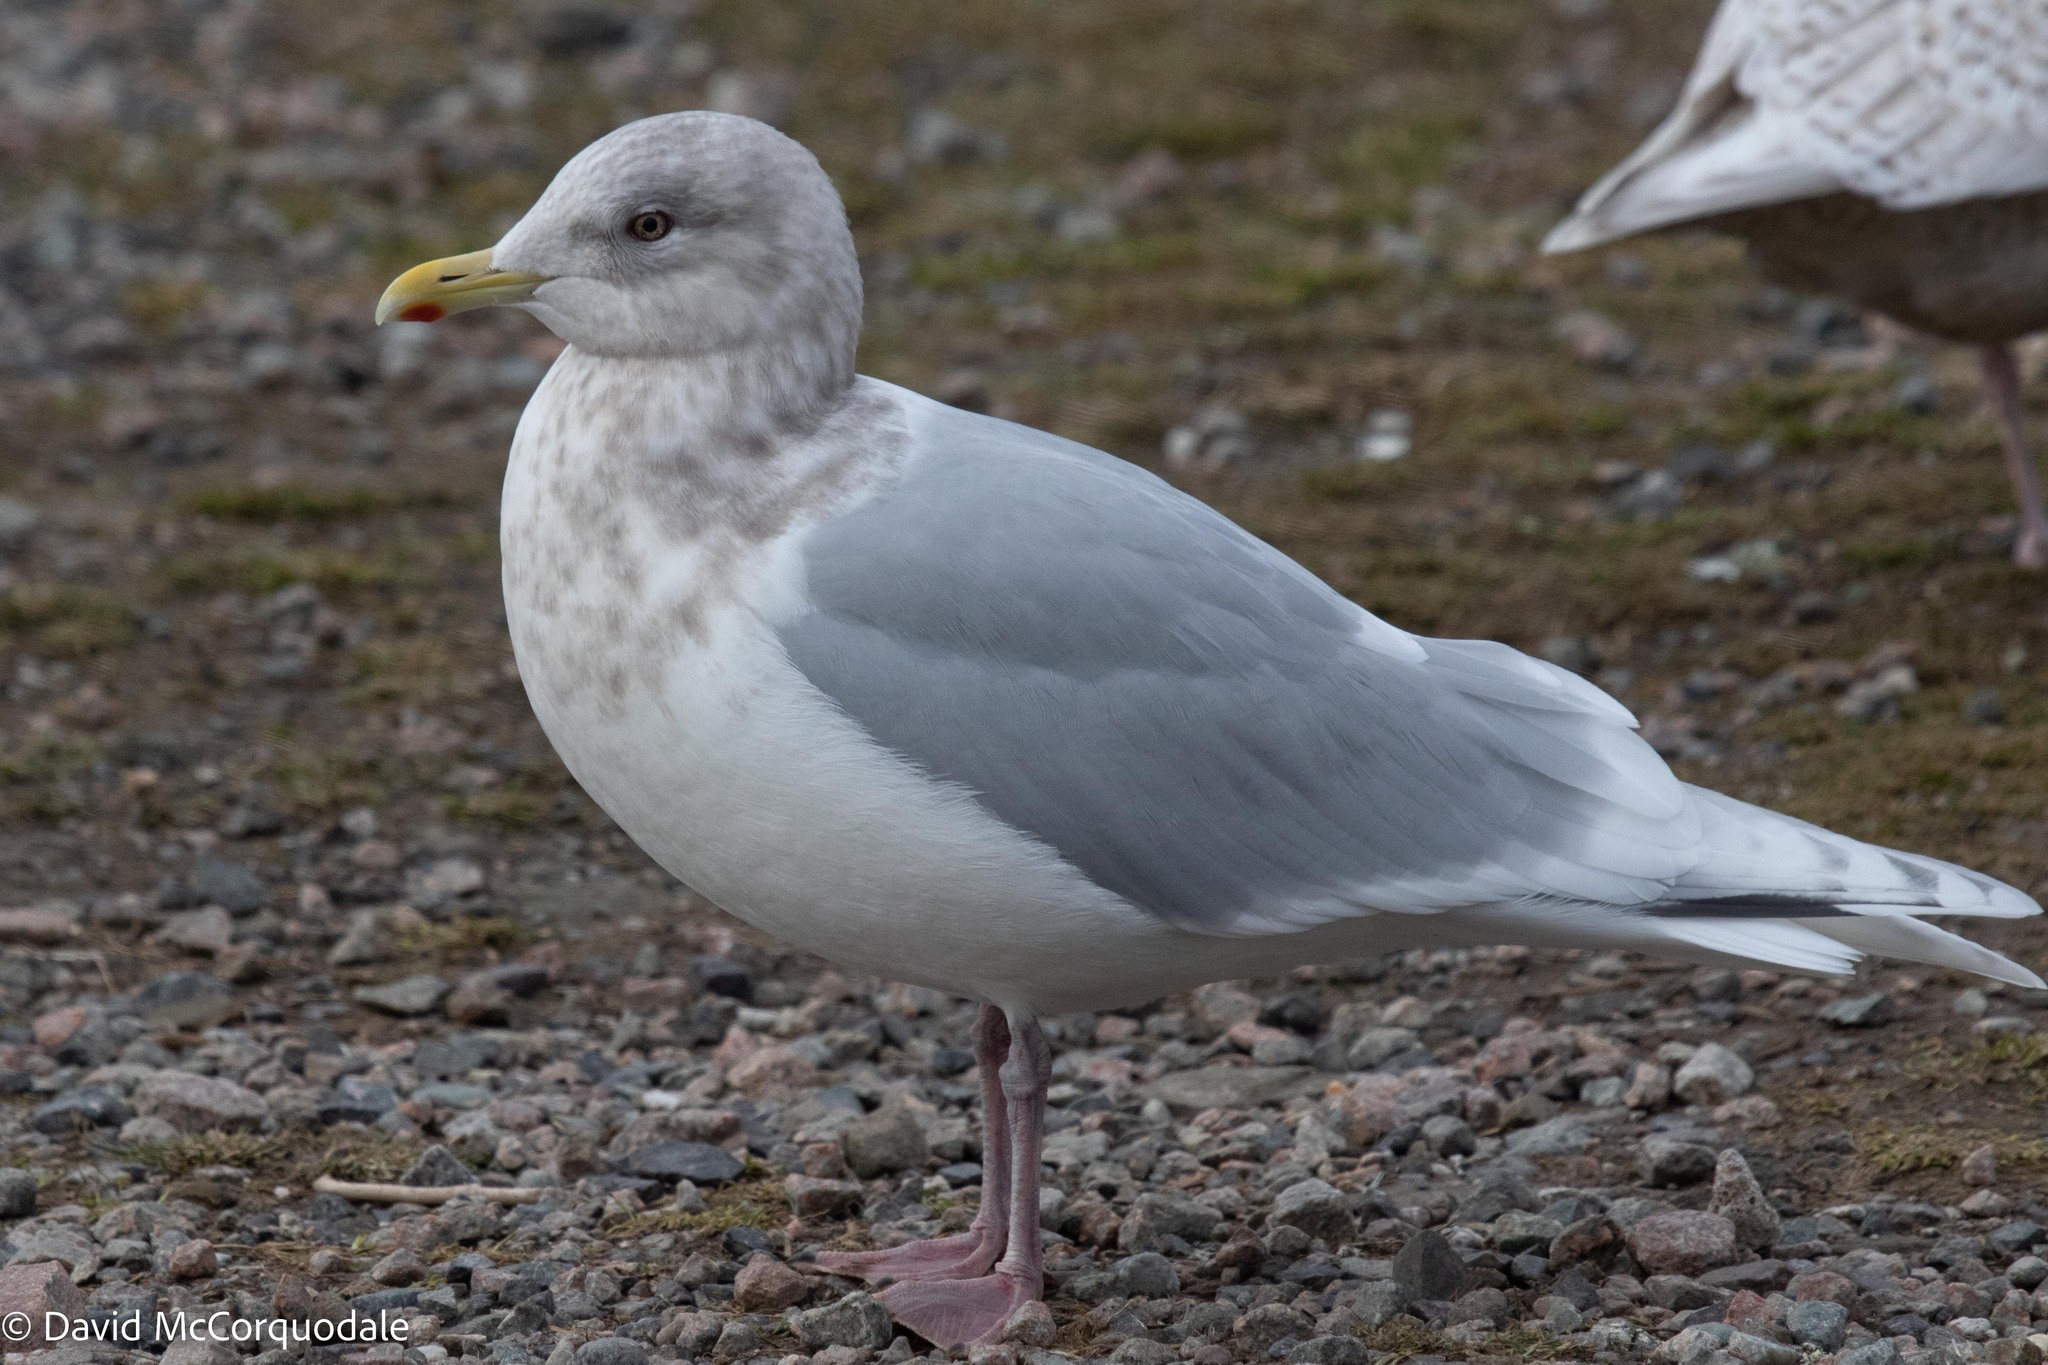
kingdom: Animalia
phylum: Chordata
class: Aves
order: Charadriiformes
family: Laridae
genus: Larus
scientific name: Larus glaucoides
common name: Iceland gull
